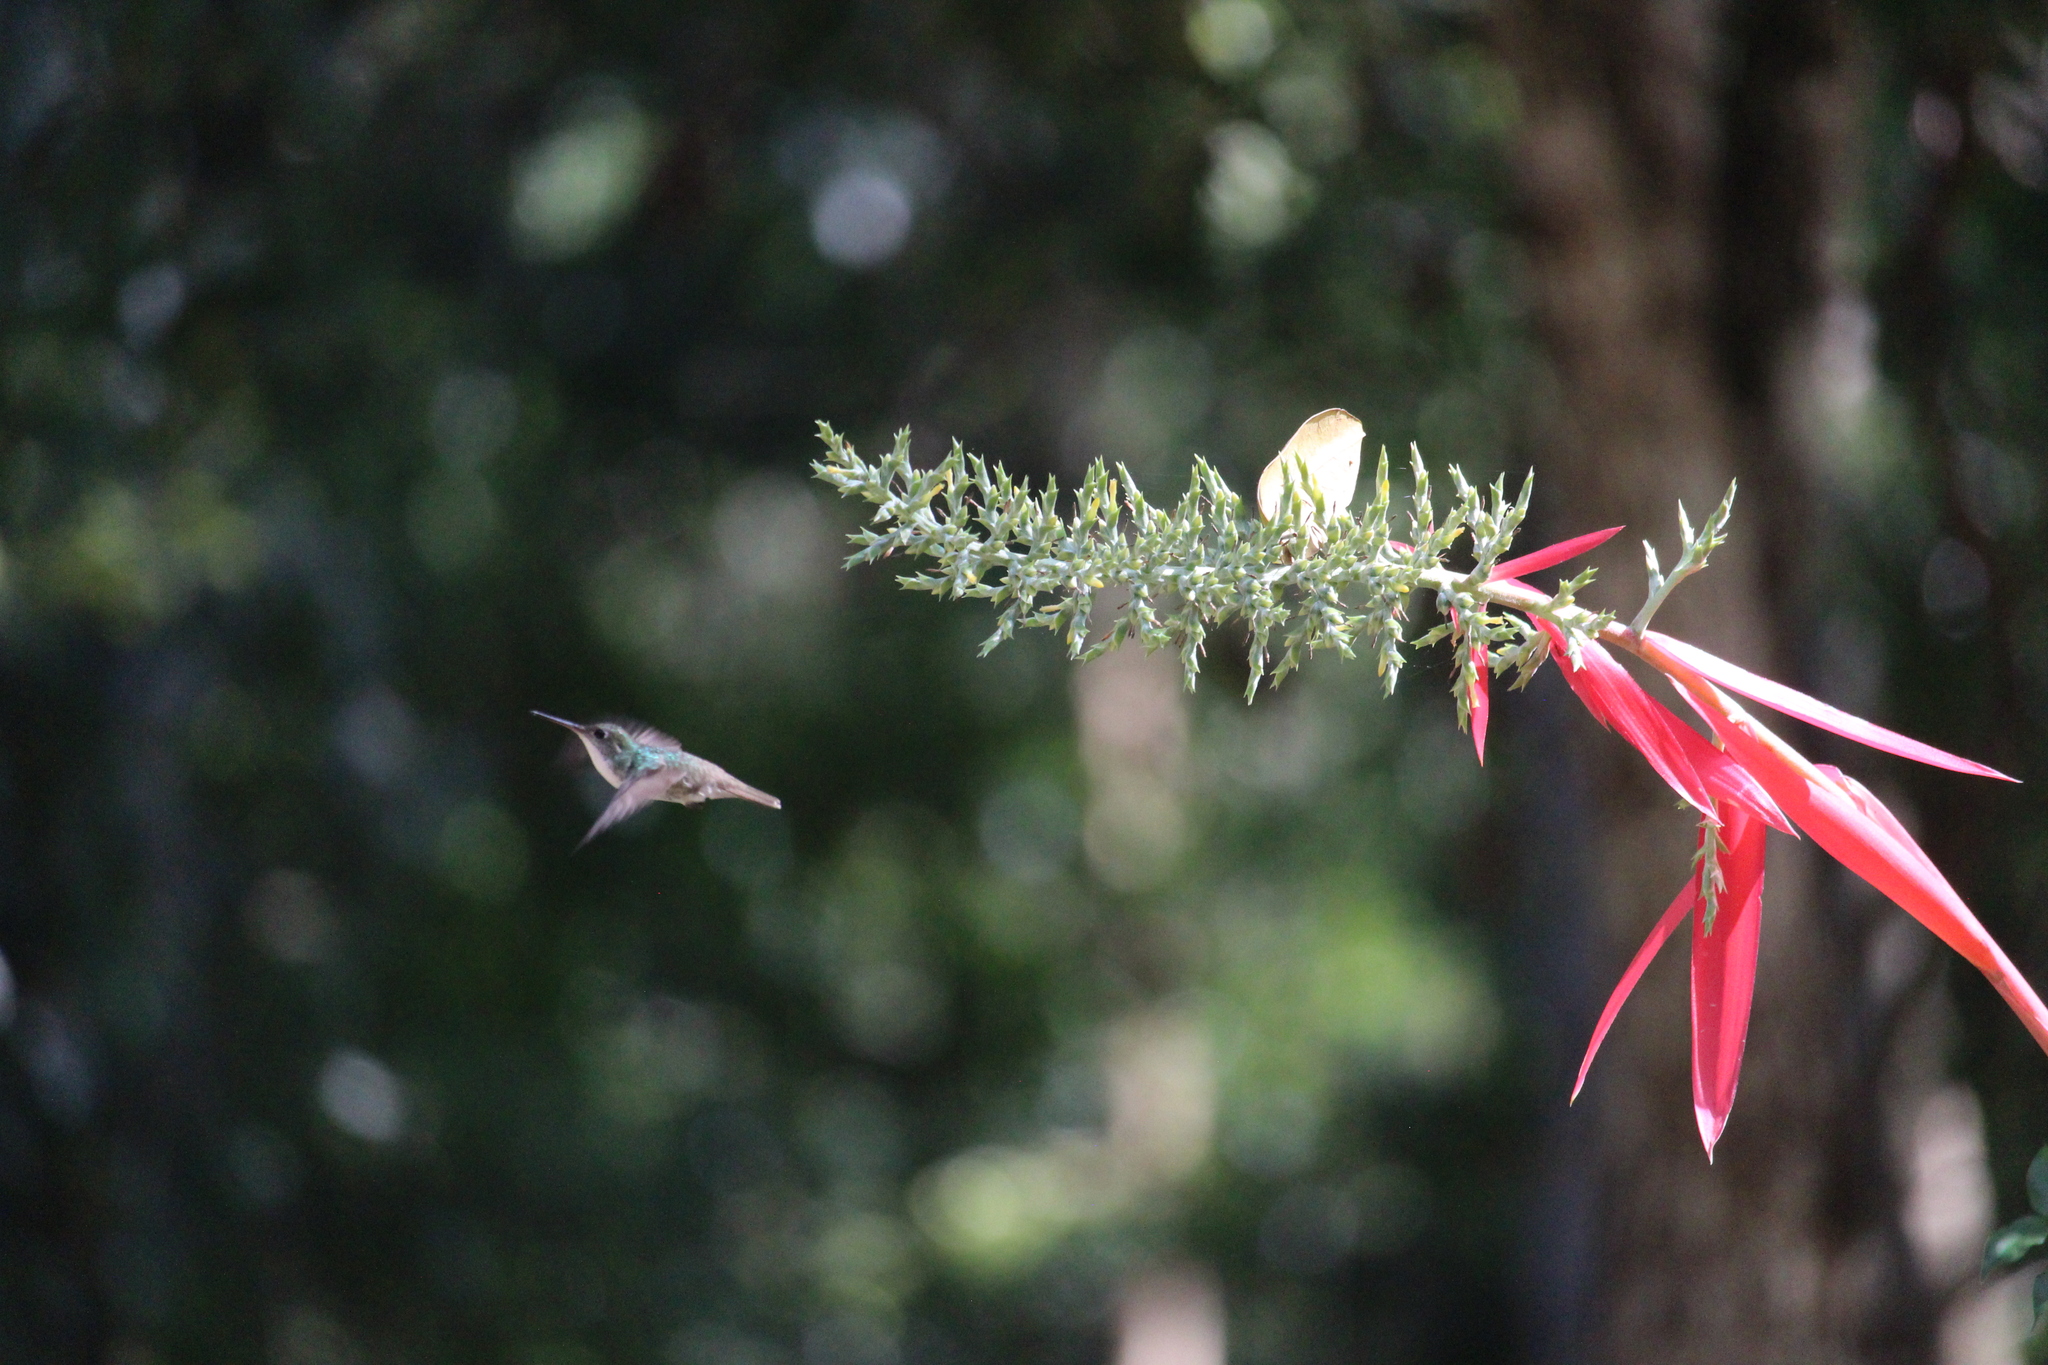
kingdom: Animalia
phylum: Chordata
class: Aves
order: Apodiformes
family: Trochilidae
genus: Chlorestes
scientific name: Chlorestes candida
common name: White-bellied emerald
